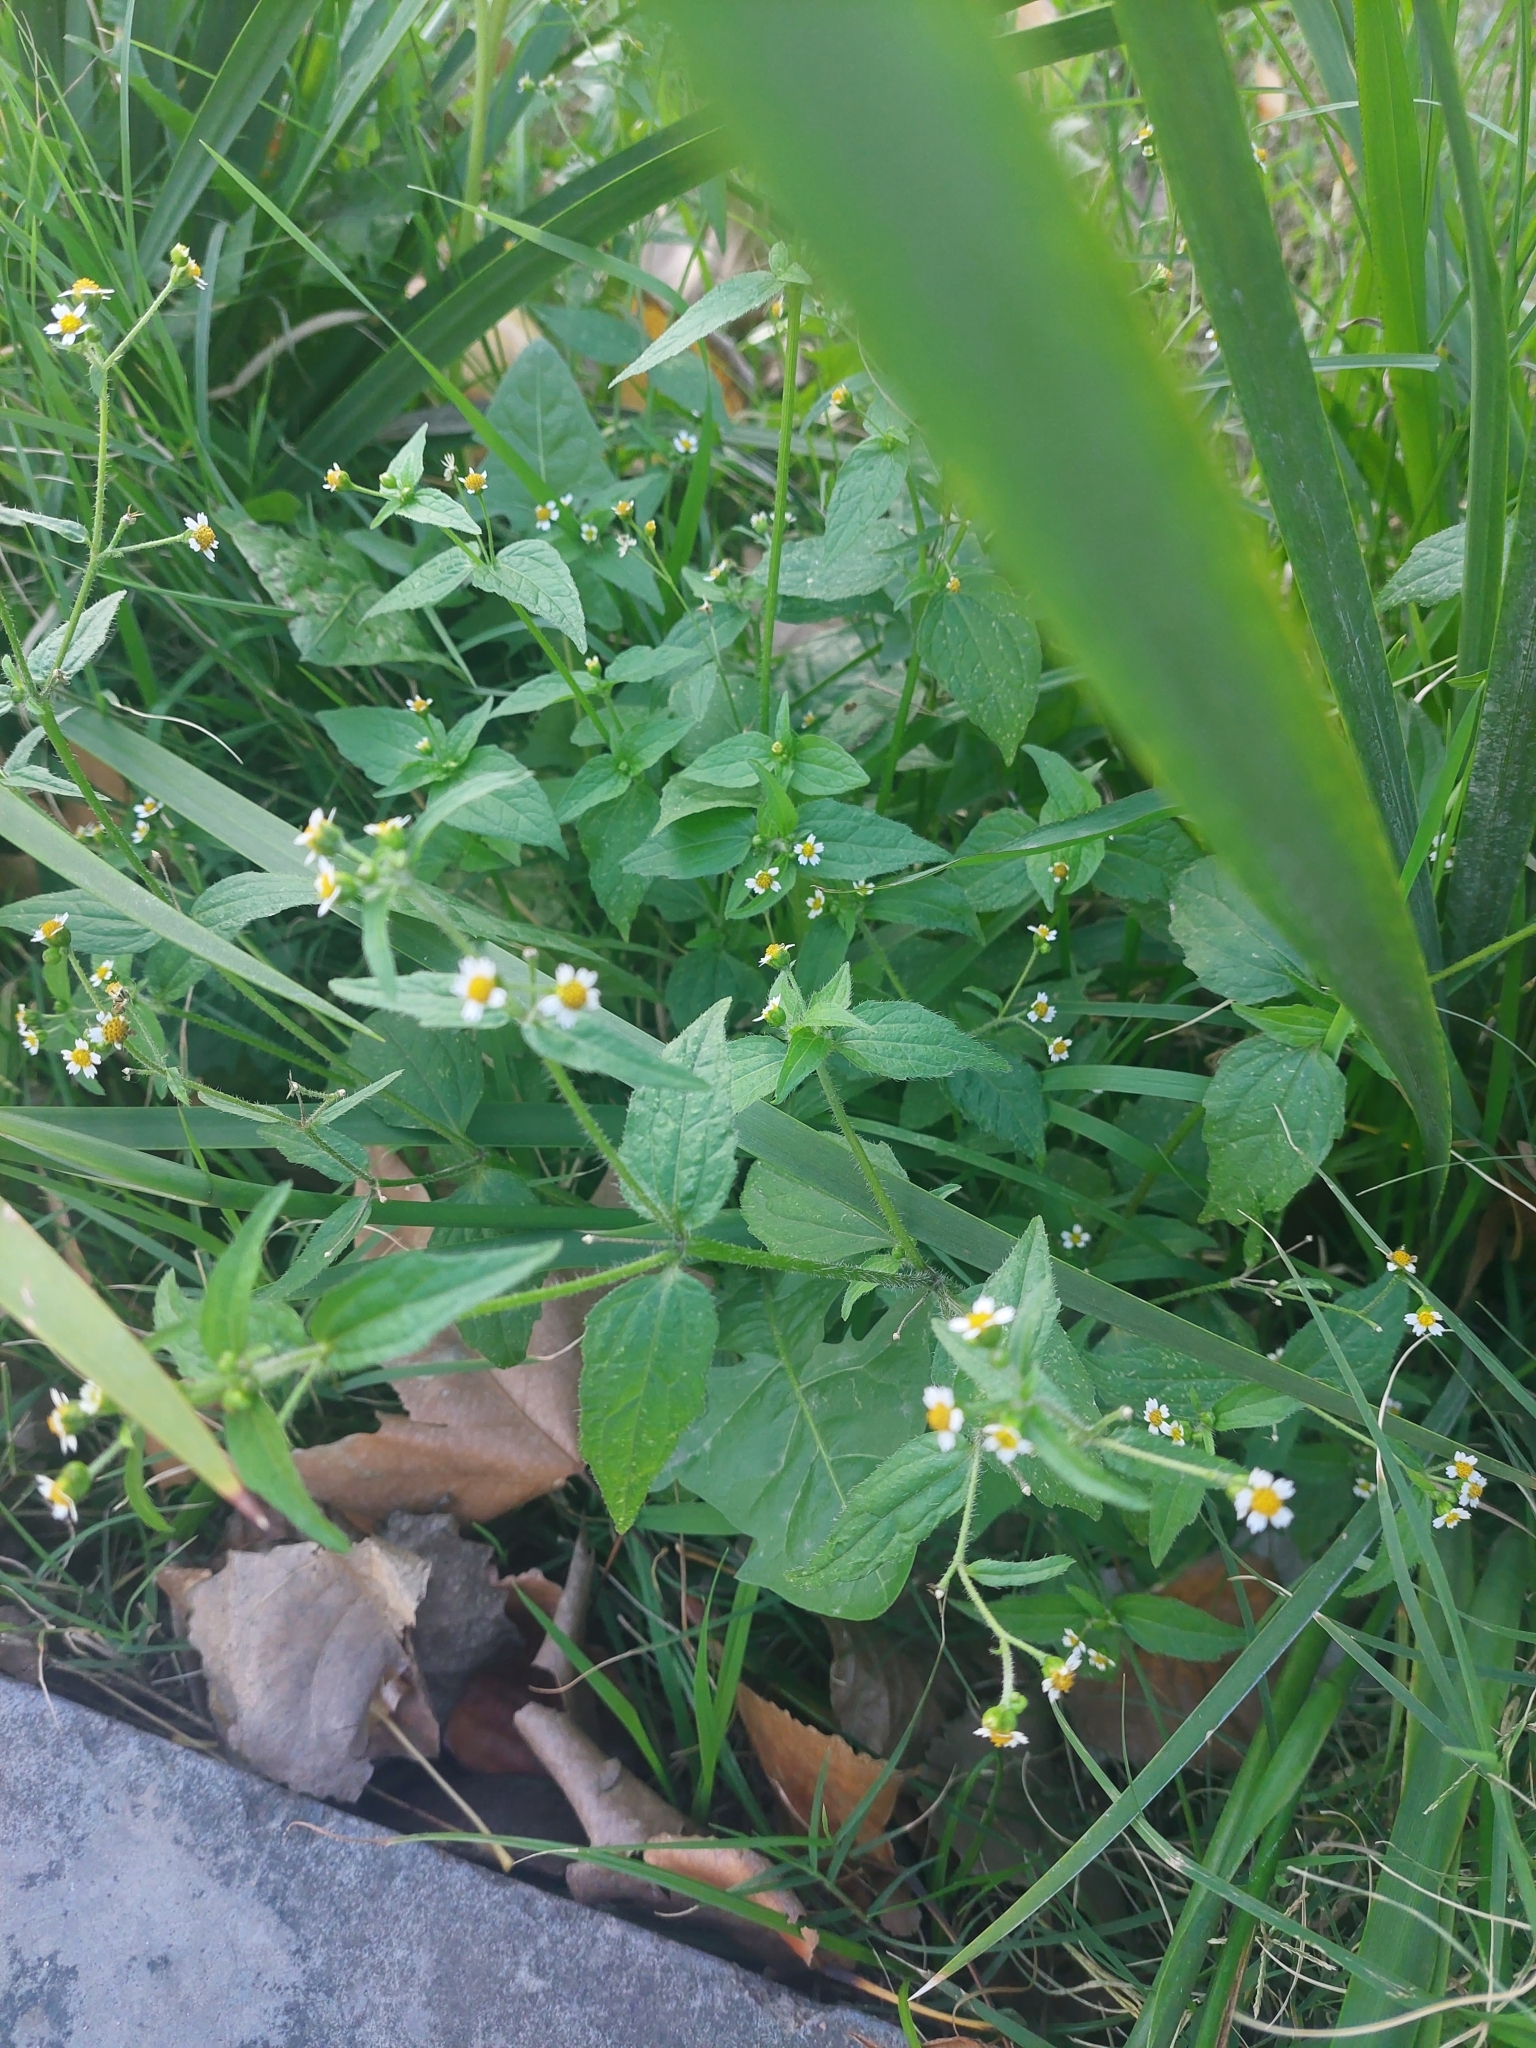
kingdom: Plantae
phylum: Tracheophyta
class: Magnoliopsida
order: Asterales
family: Asteraceae
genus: Galinsoga
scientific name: Galinsoga parviflora
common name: Gallant soldier
